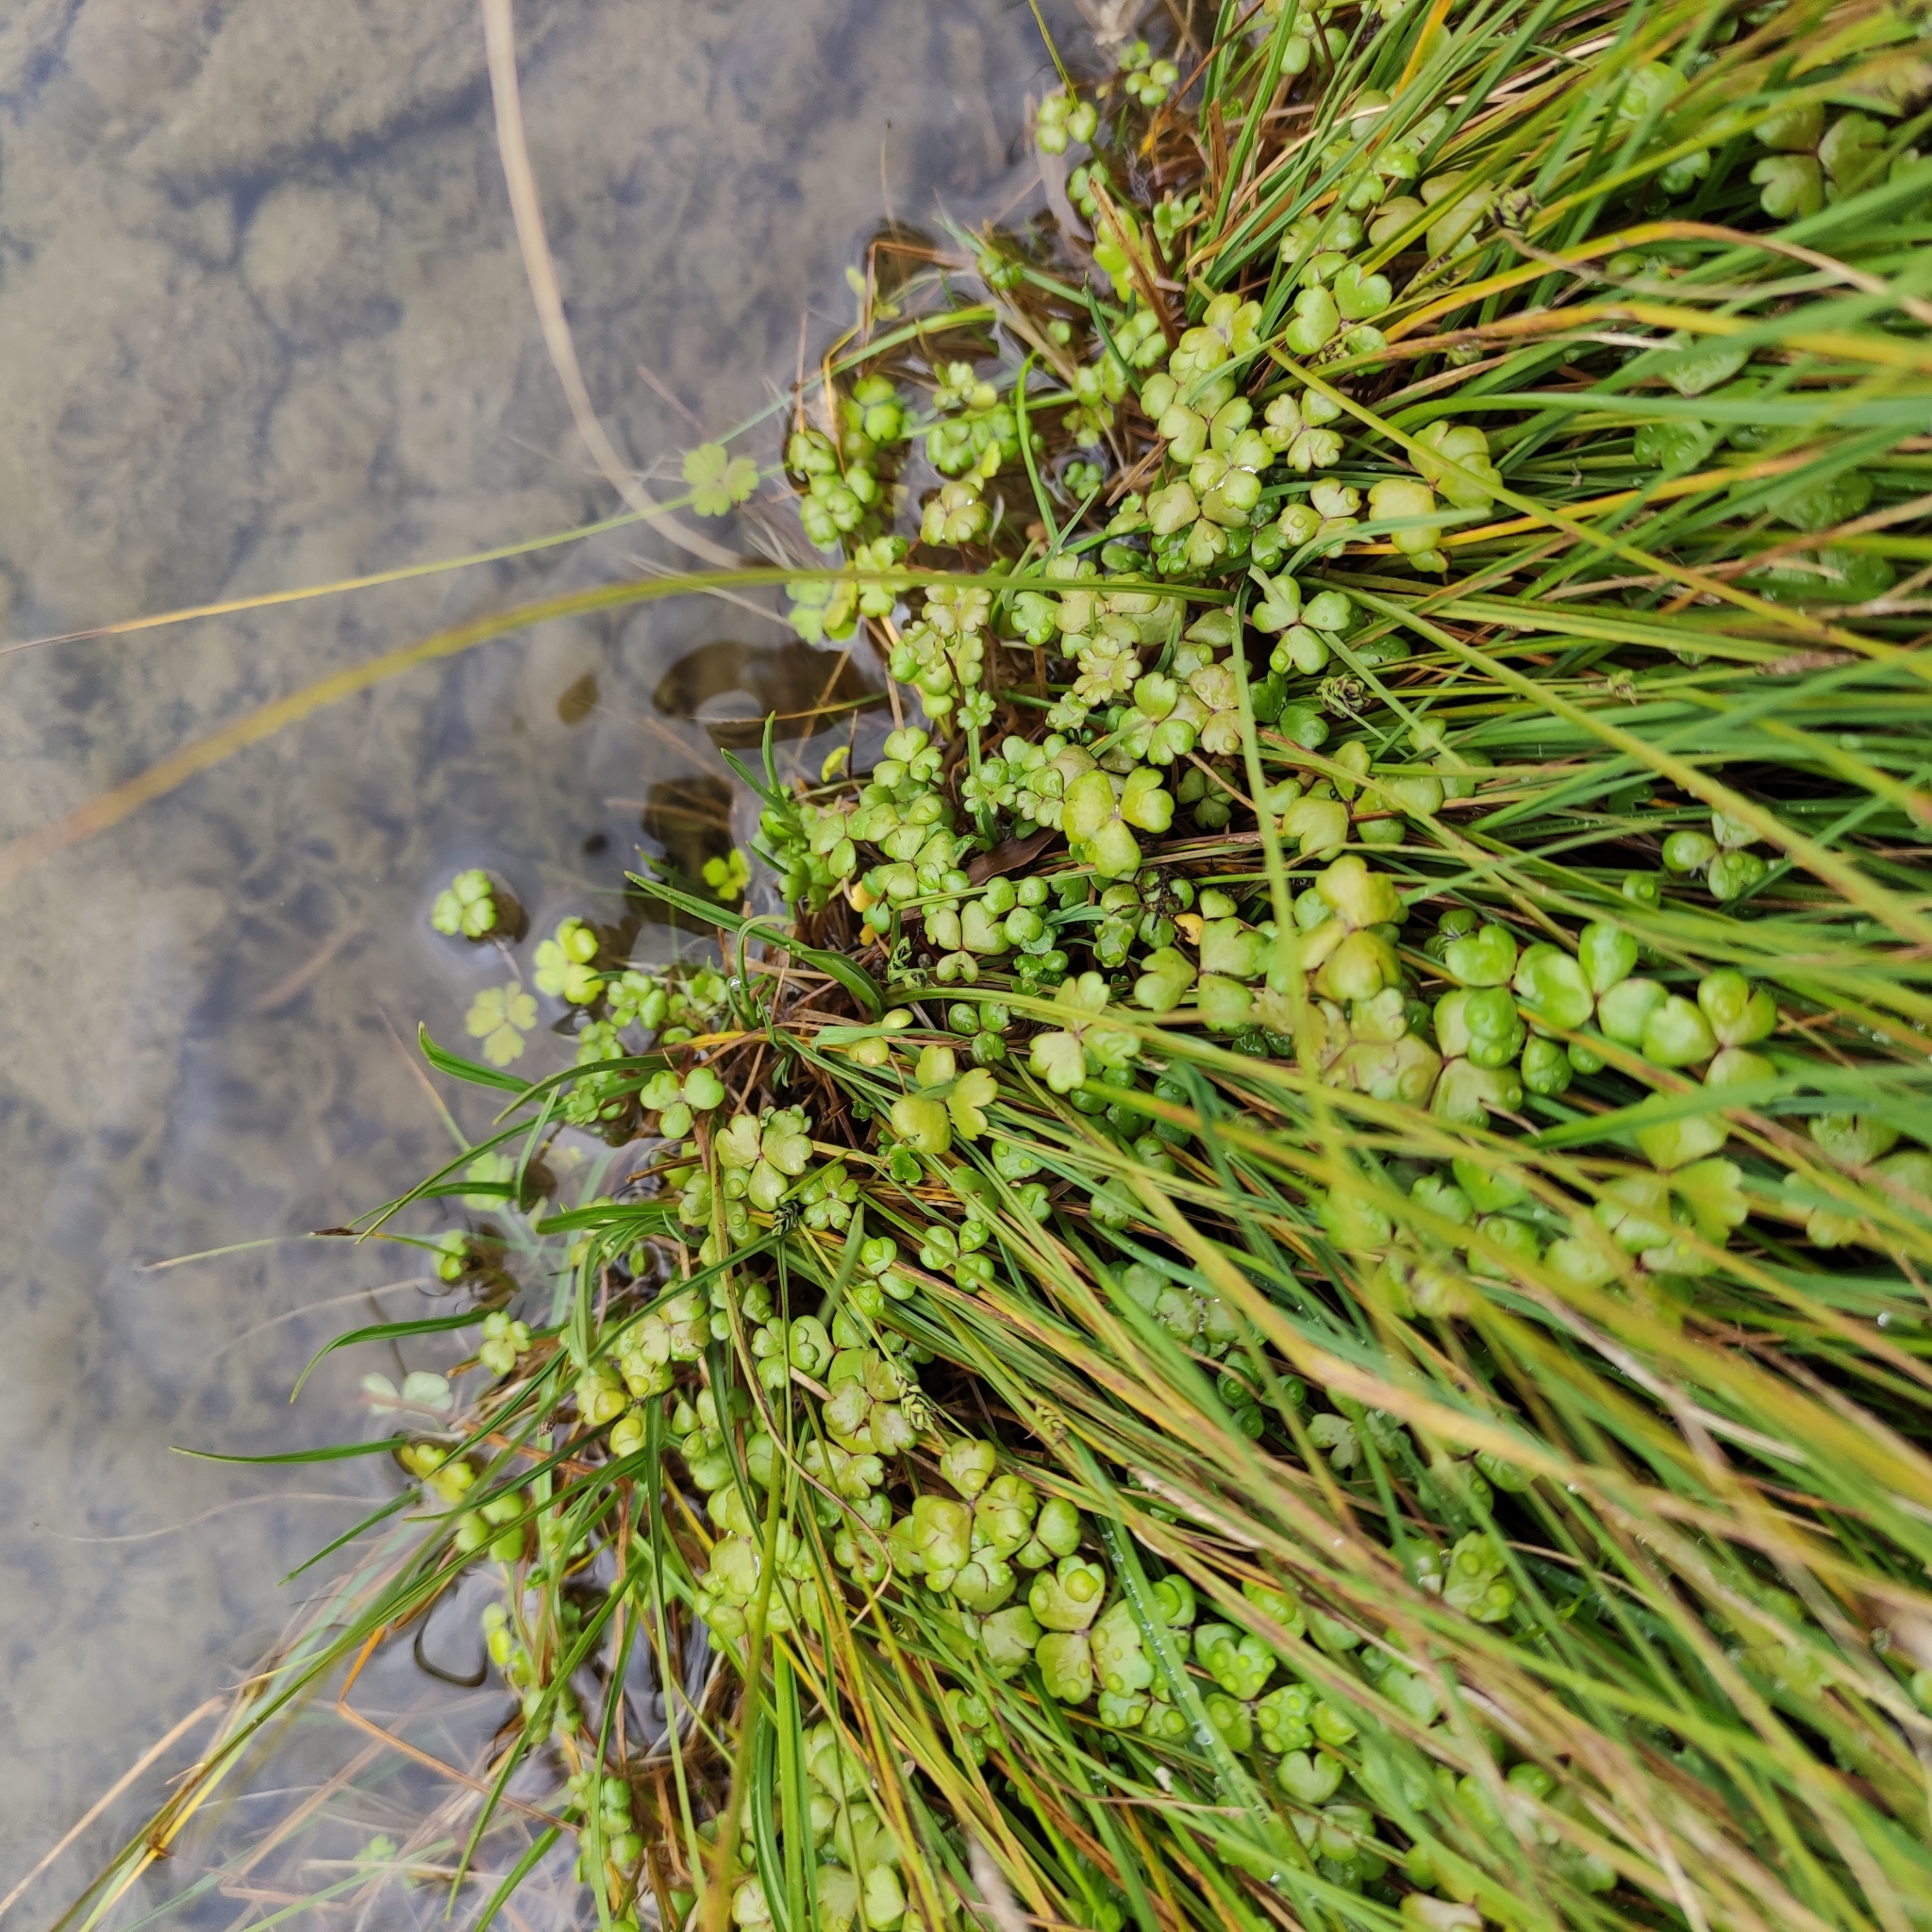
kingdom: Plantae
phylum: Tracheophyta
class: Magnoliopsida
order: Apiales
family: Araliaceae
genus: Hydrocotyle
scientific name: Hydrocotyle sulcata
